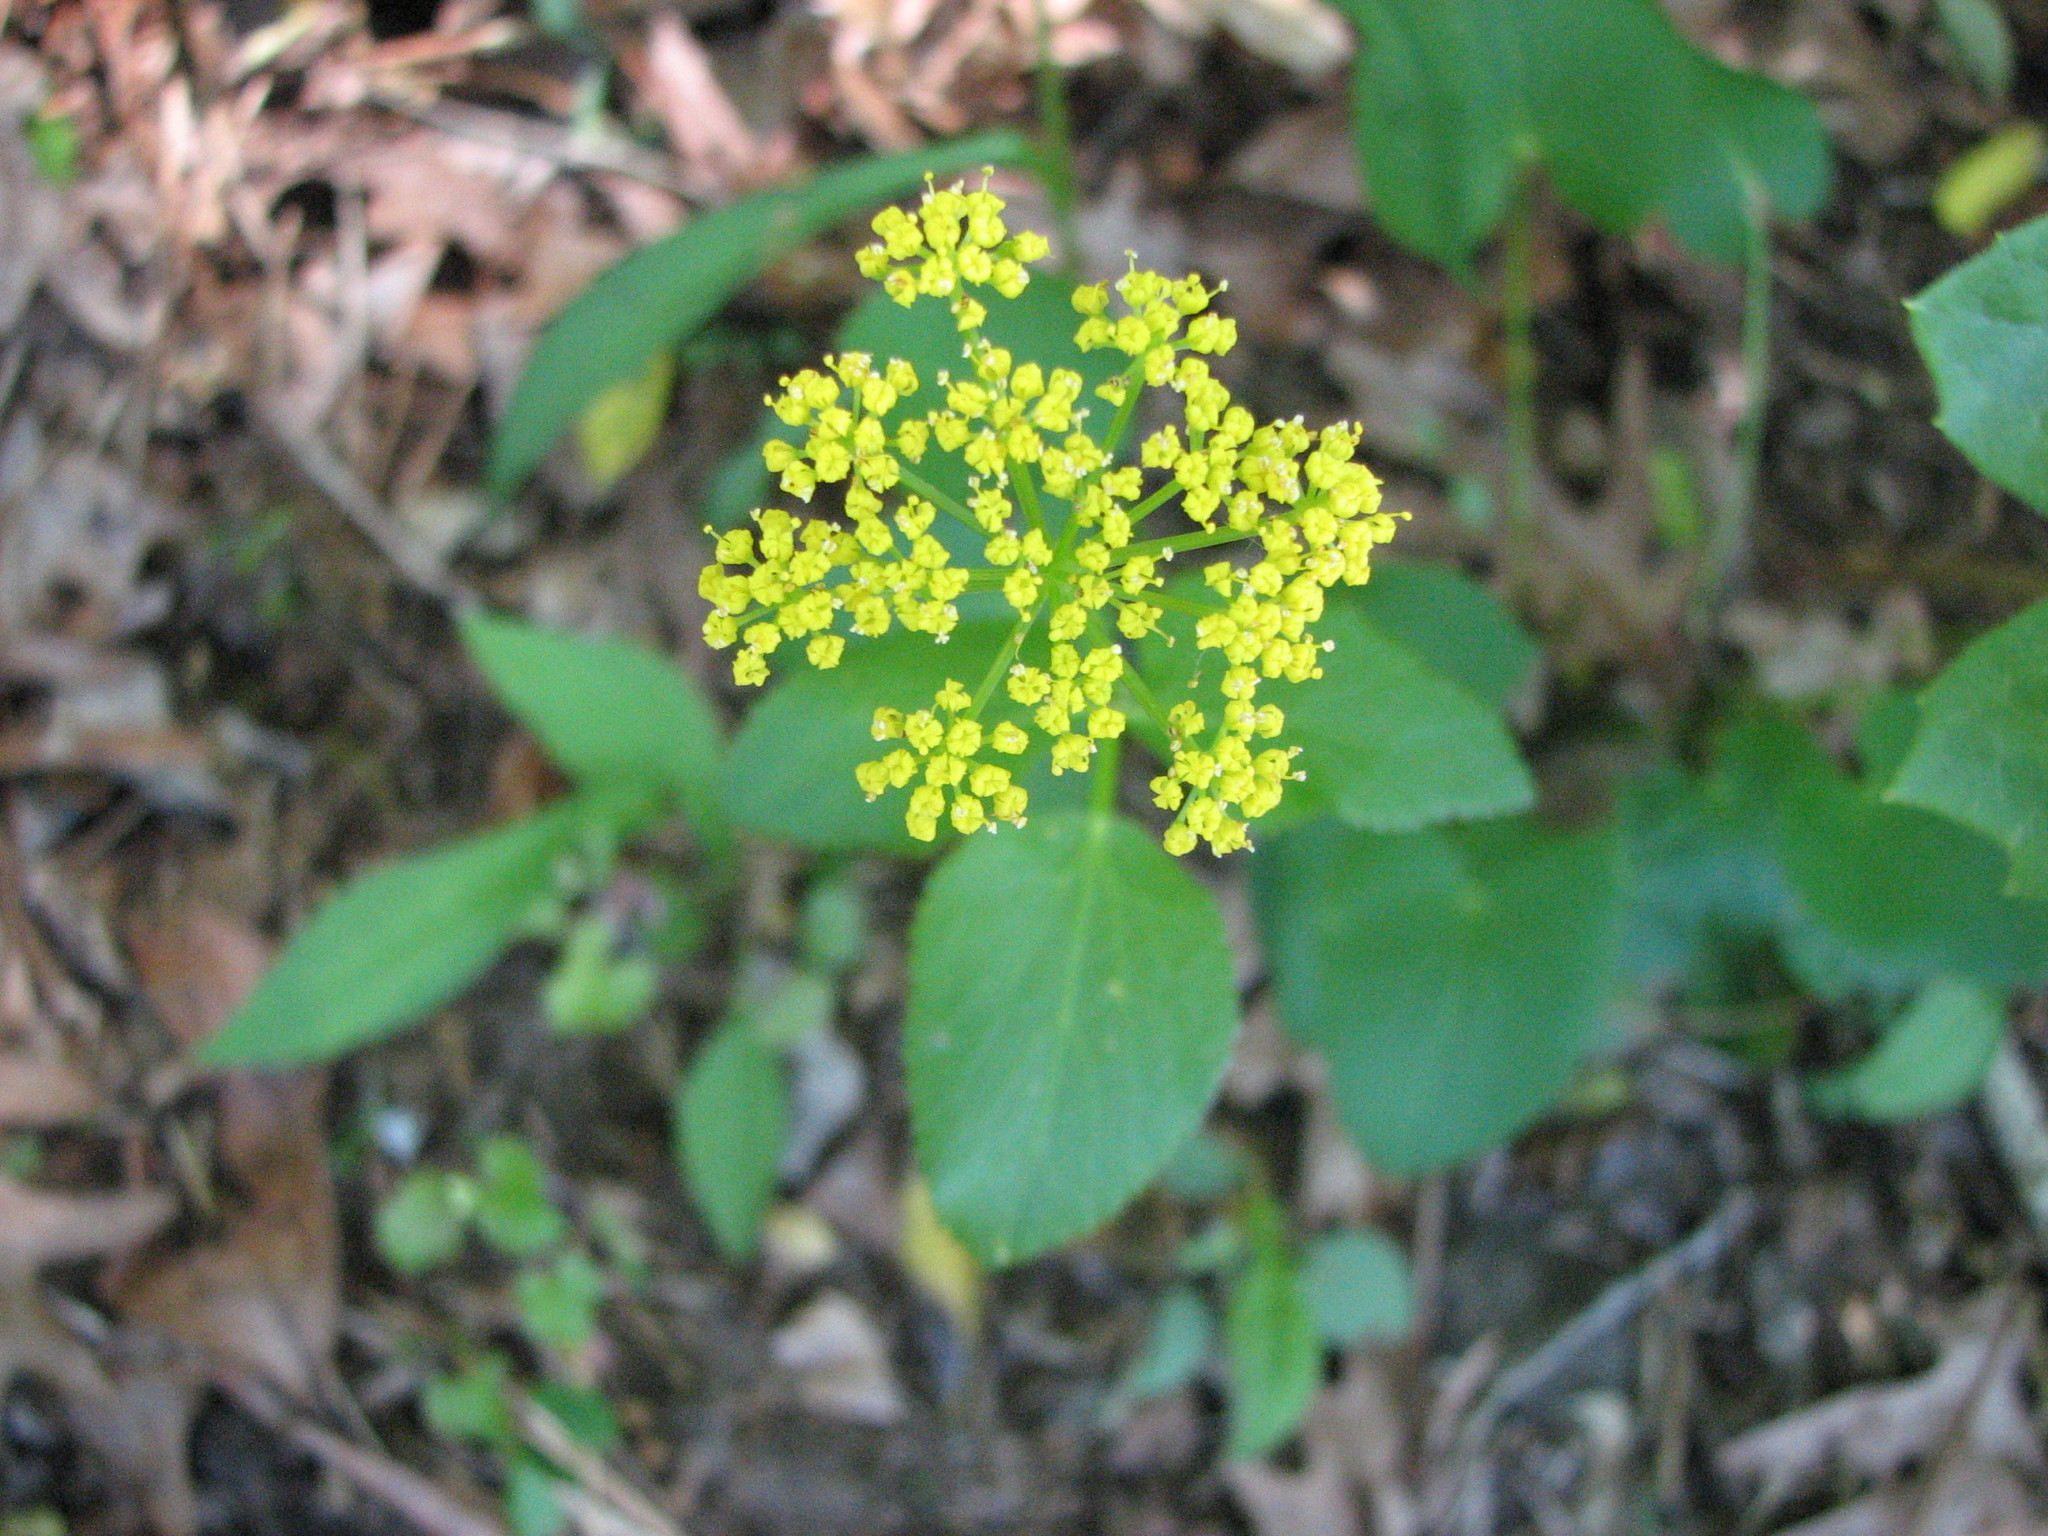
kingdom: Plantae
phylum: Tracheophyta
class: Magnoliopsida
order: Apiales
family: Apiaceae
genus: Zizia
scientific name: Zizia aptera
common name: Heart-leaved alexanders
